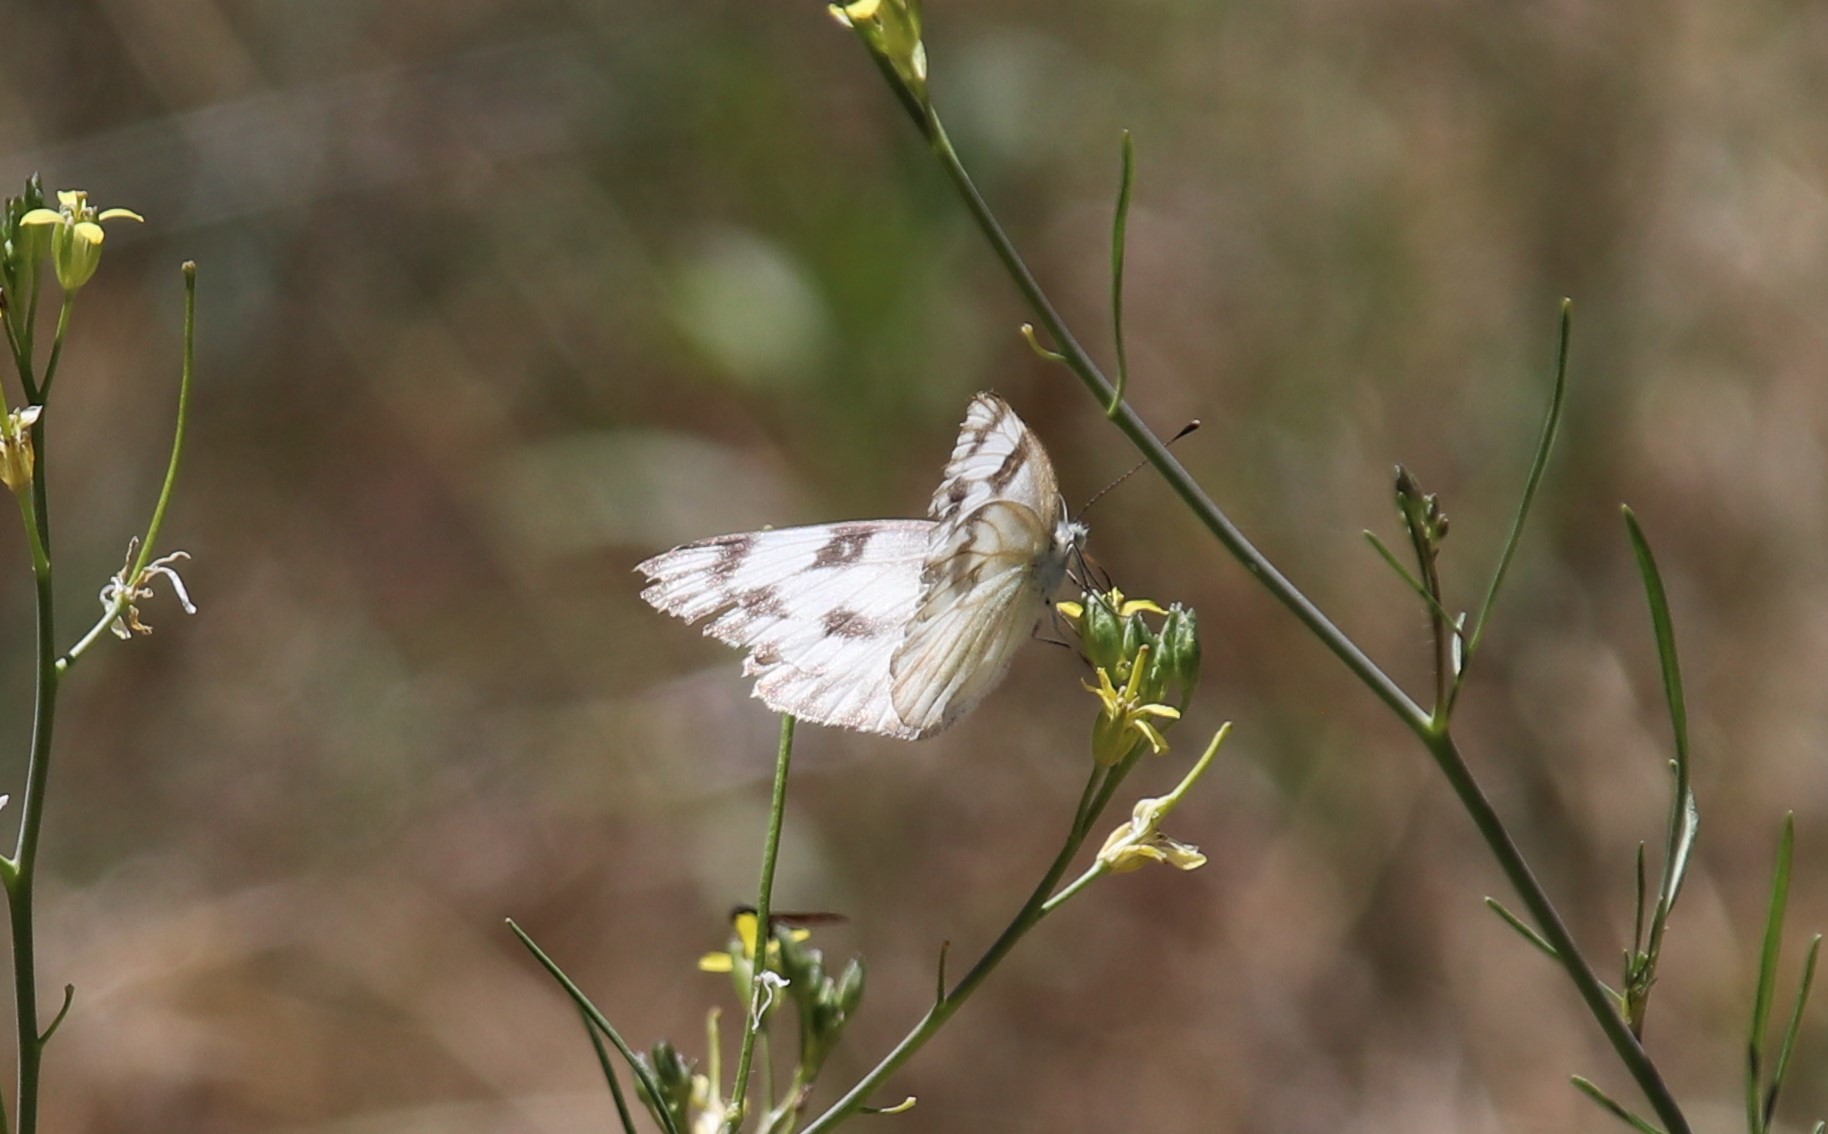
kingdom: Animalia
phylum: Arthropoda
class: Insecta
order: Lepidoptera
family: Pieridae
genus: Pontia
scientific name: Pontia protodice
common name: Checkered white
